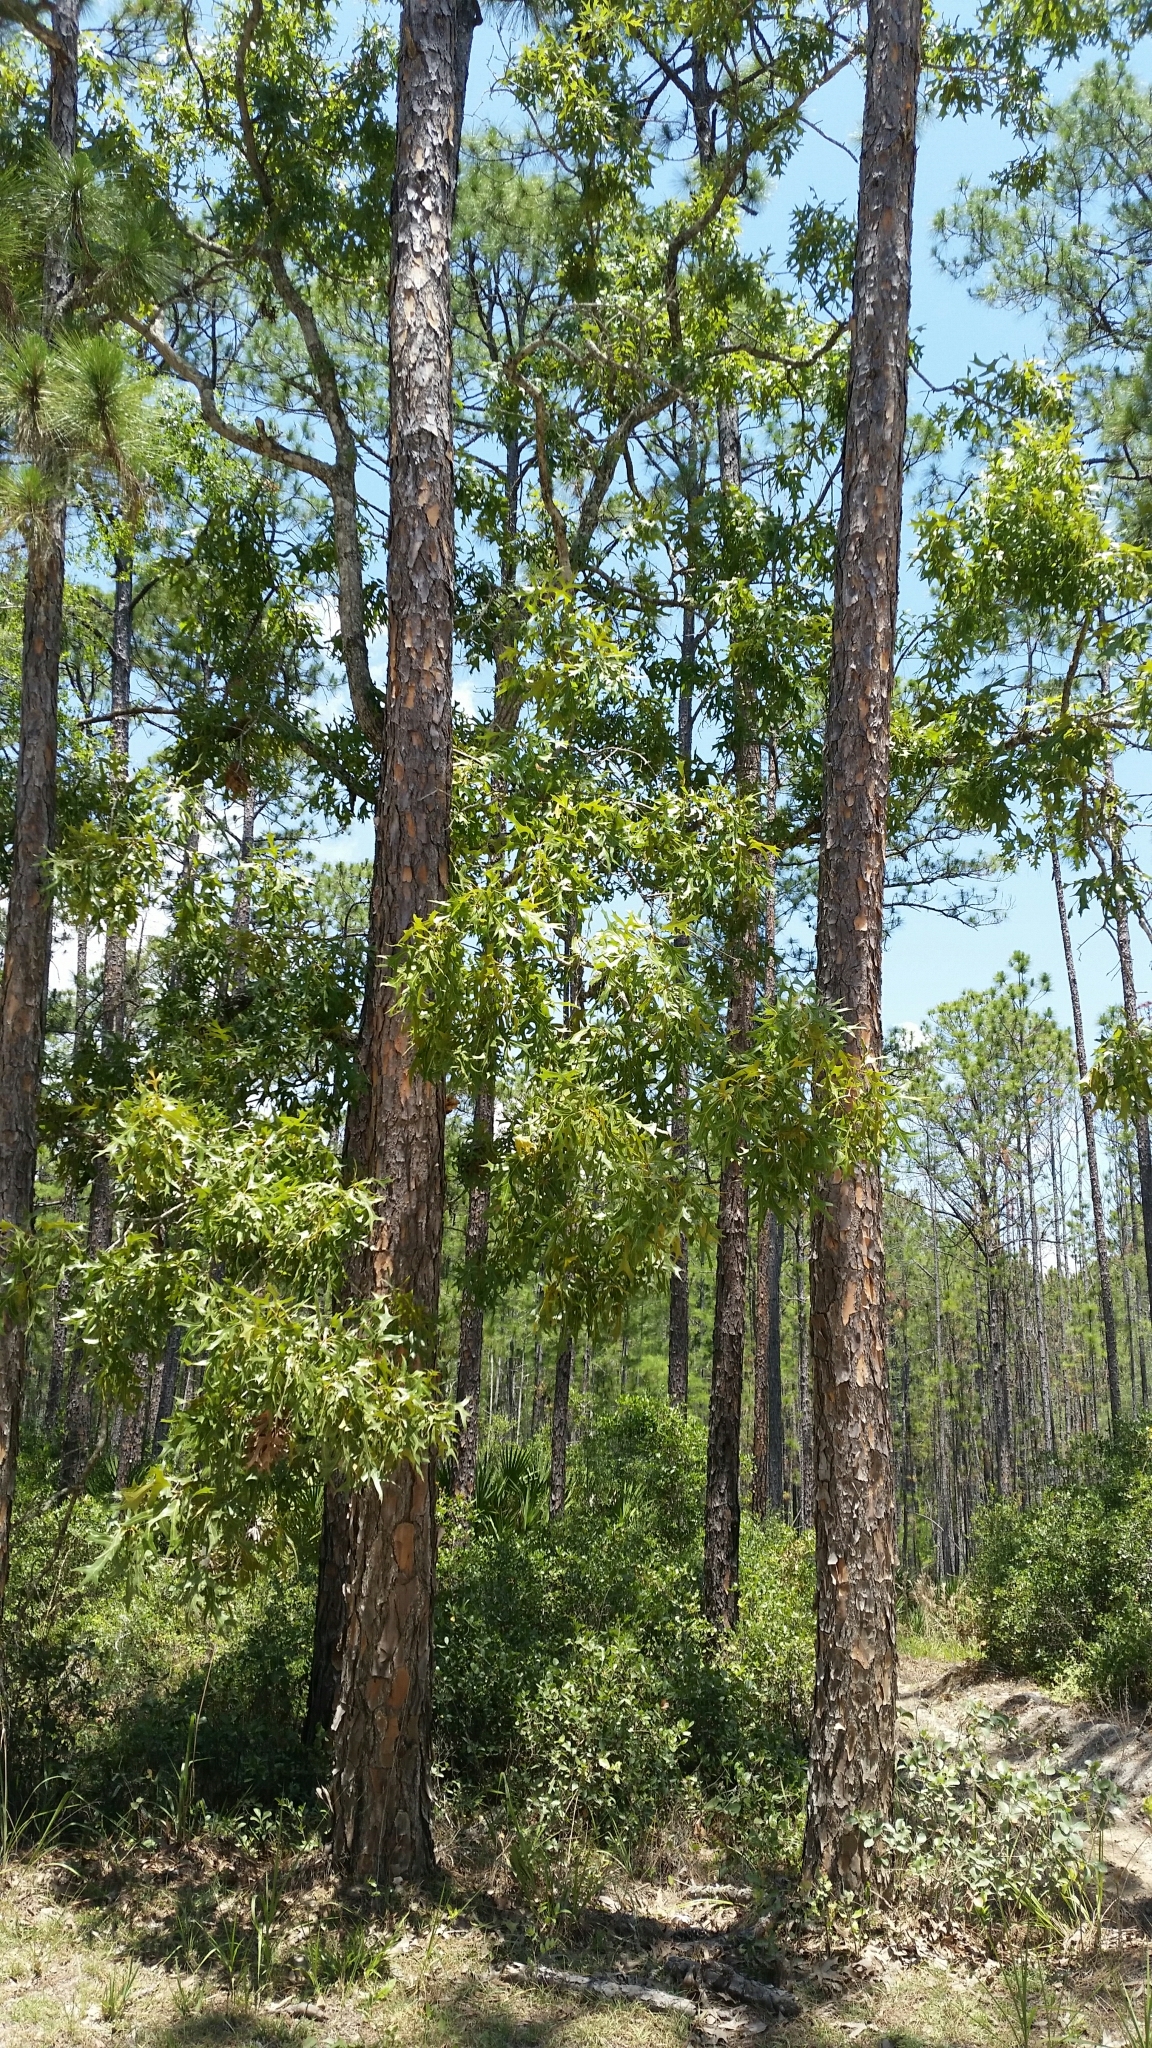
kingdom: Plantae
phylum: Tracheophyta
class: Magnoliopsida
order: Fagales
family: Fagaceae
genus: Quercus
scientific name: Quercus laevis
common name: Turkey oak
